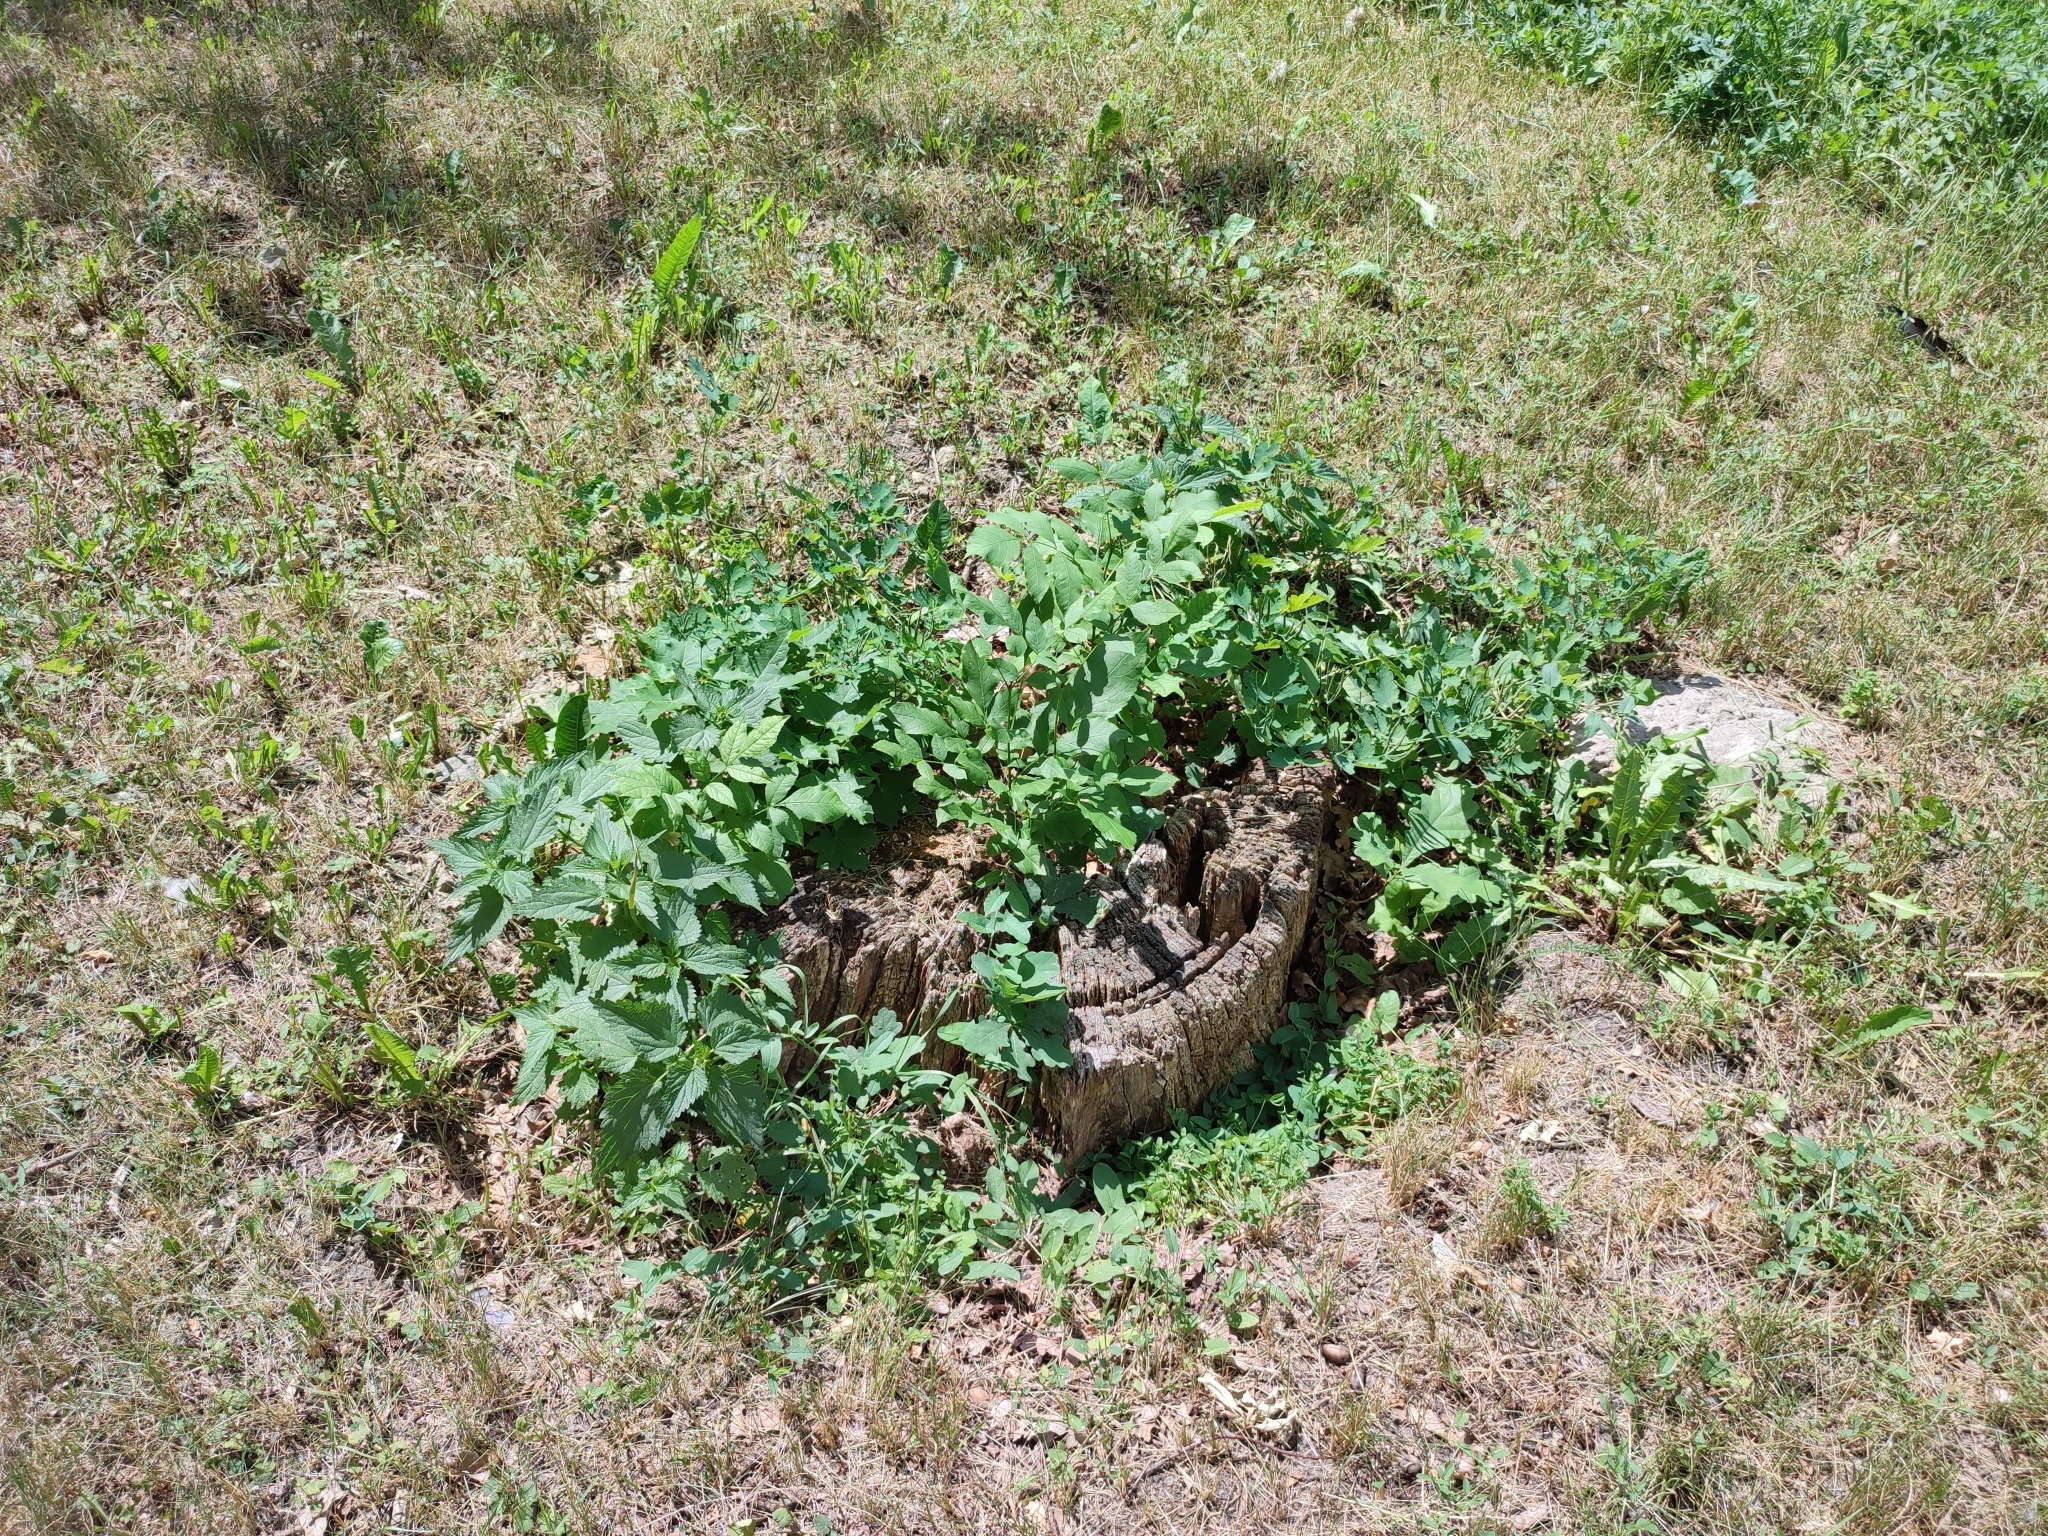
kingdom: Plantae
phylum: Tracheophyta
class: Magnoliopsida
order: Fagales
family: Fagaceae
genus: Quercus
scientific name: Quercus robur
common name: Pedunculate oak
